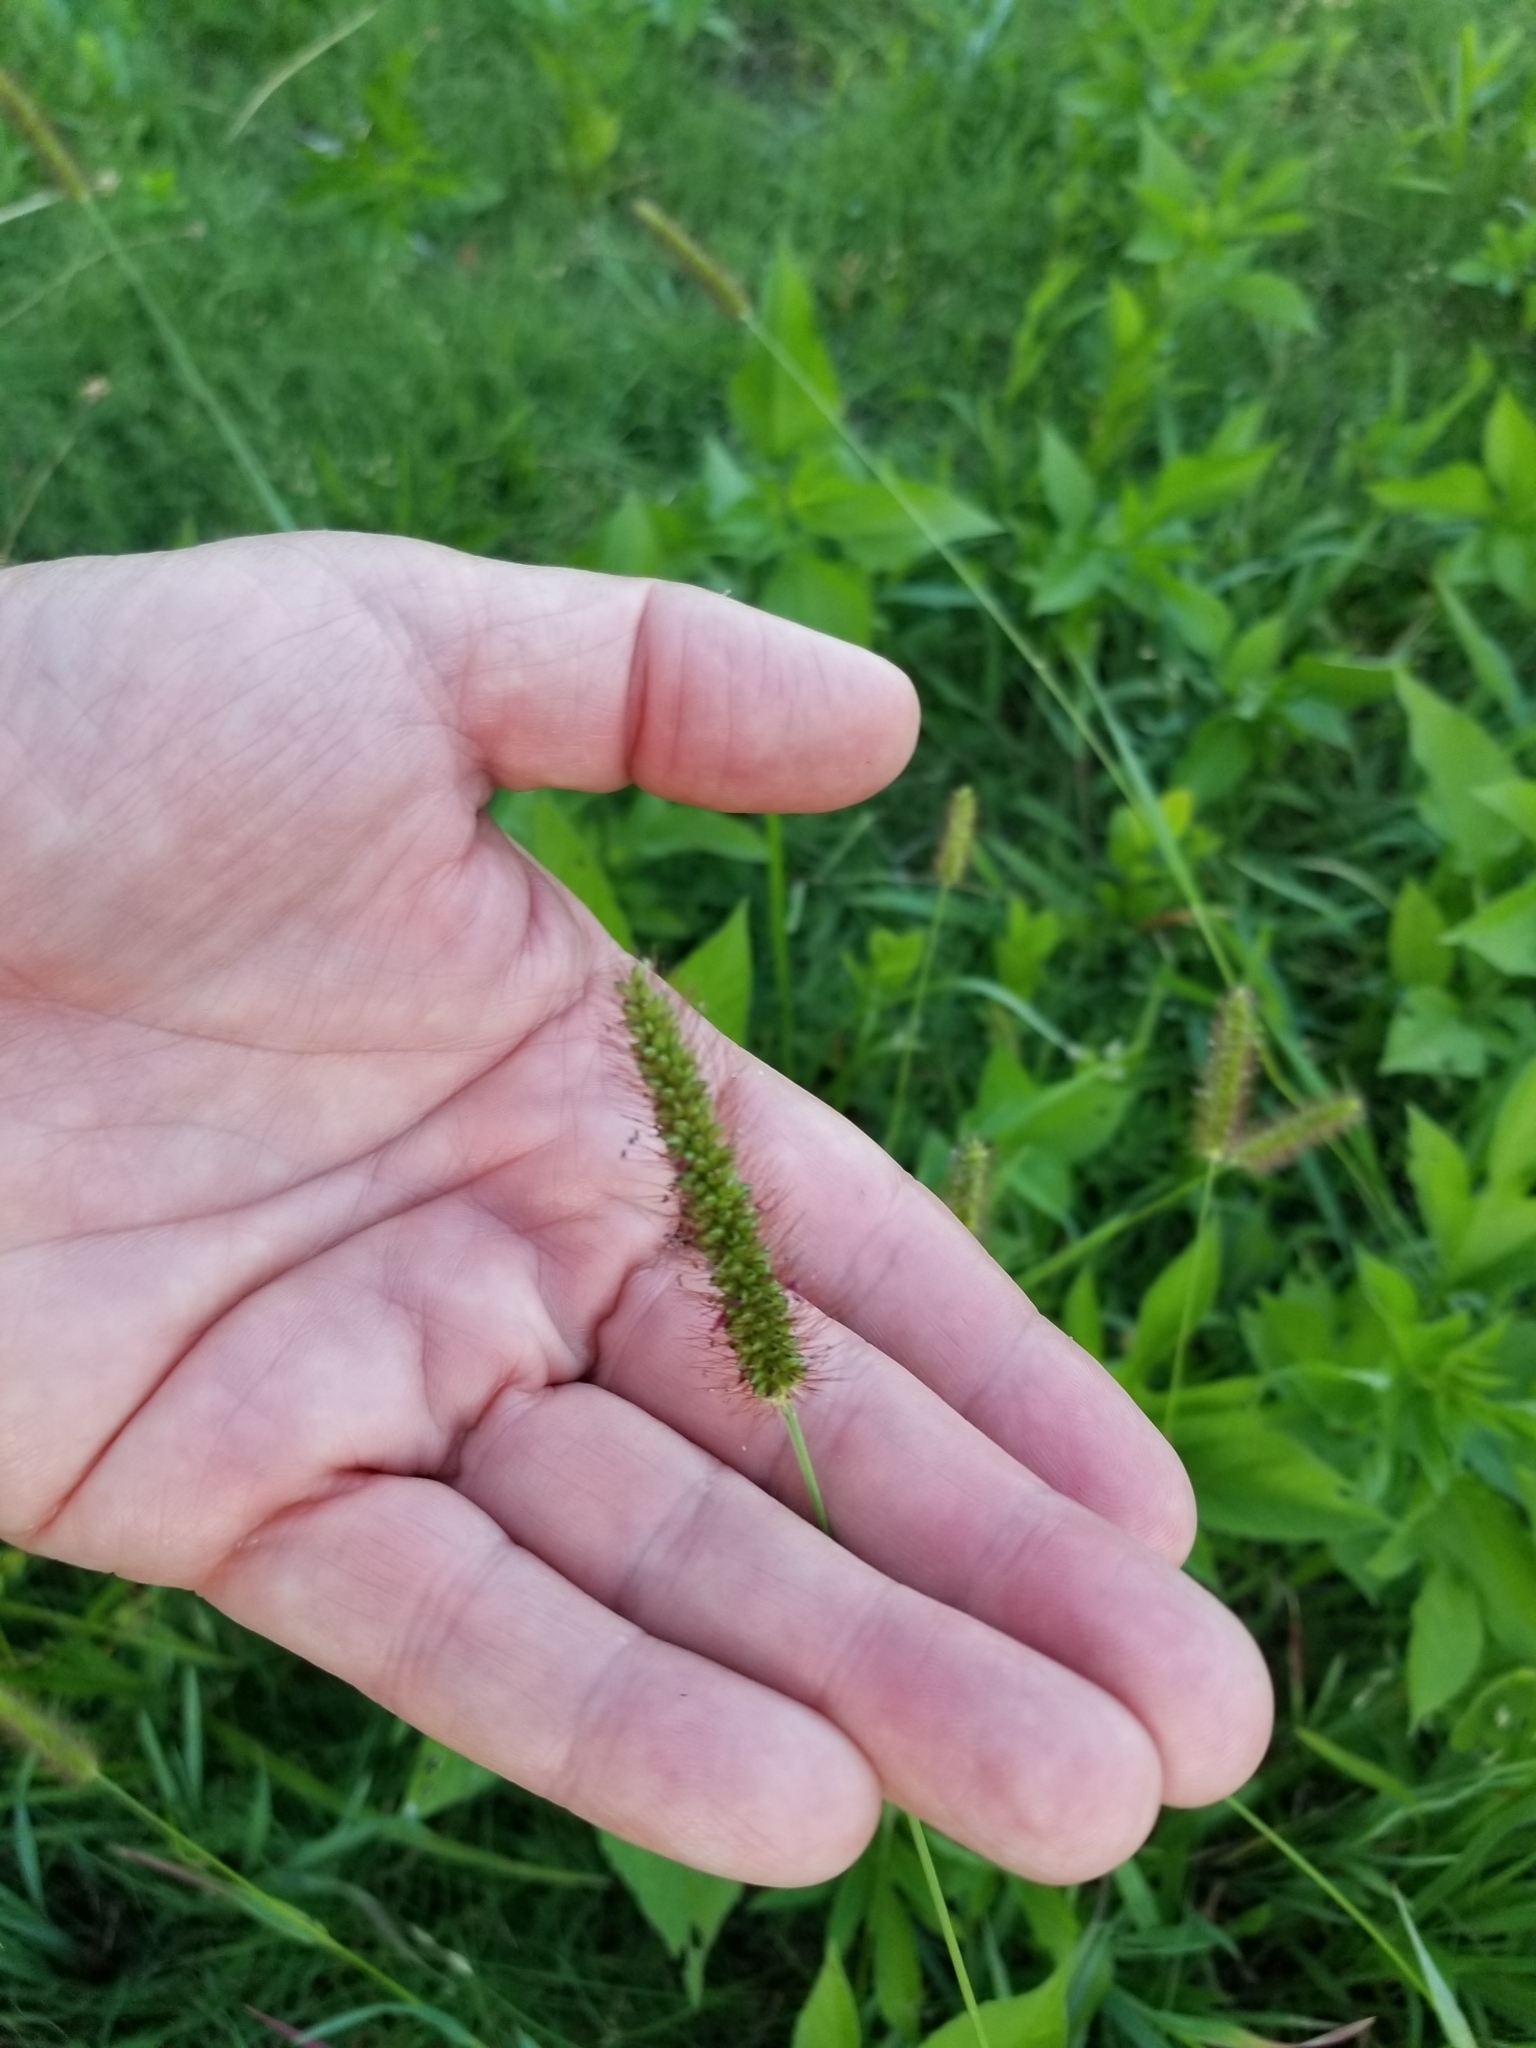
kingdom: Plantae
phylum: Tracheophyta
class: Liliopsida
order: Poales
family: Poaceae
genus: Setaria
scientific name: Setaria viridis
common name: Green bristlegrass
